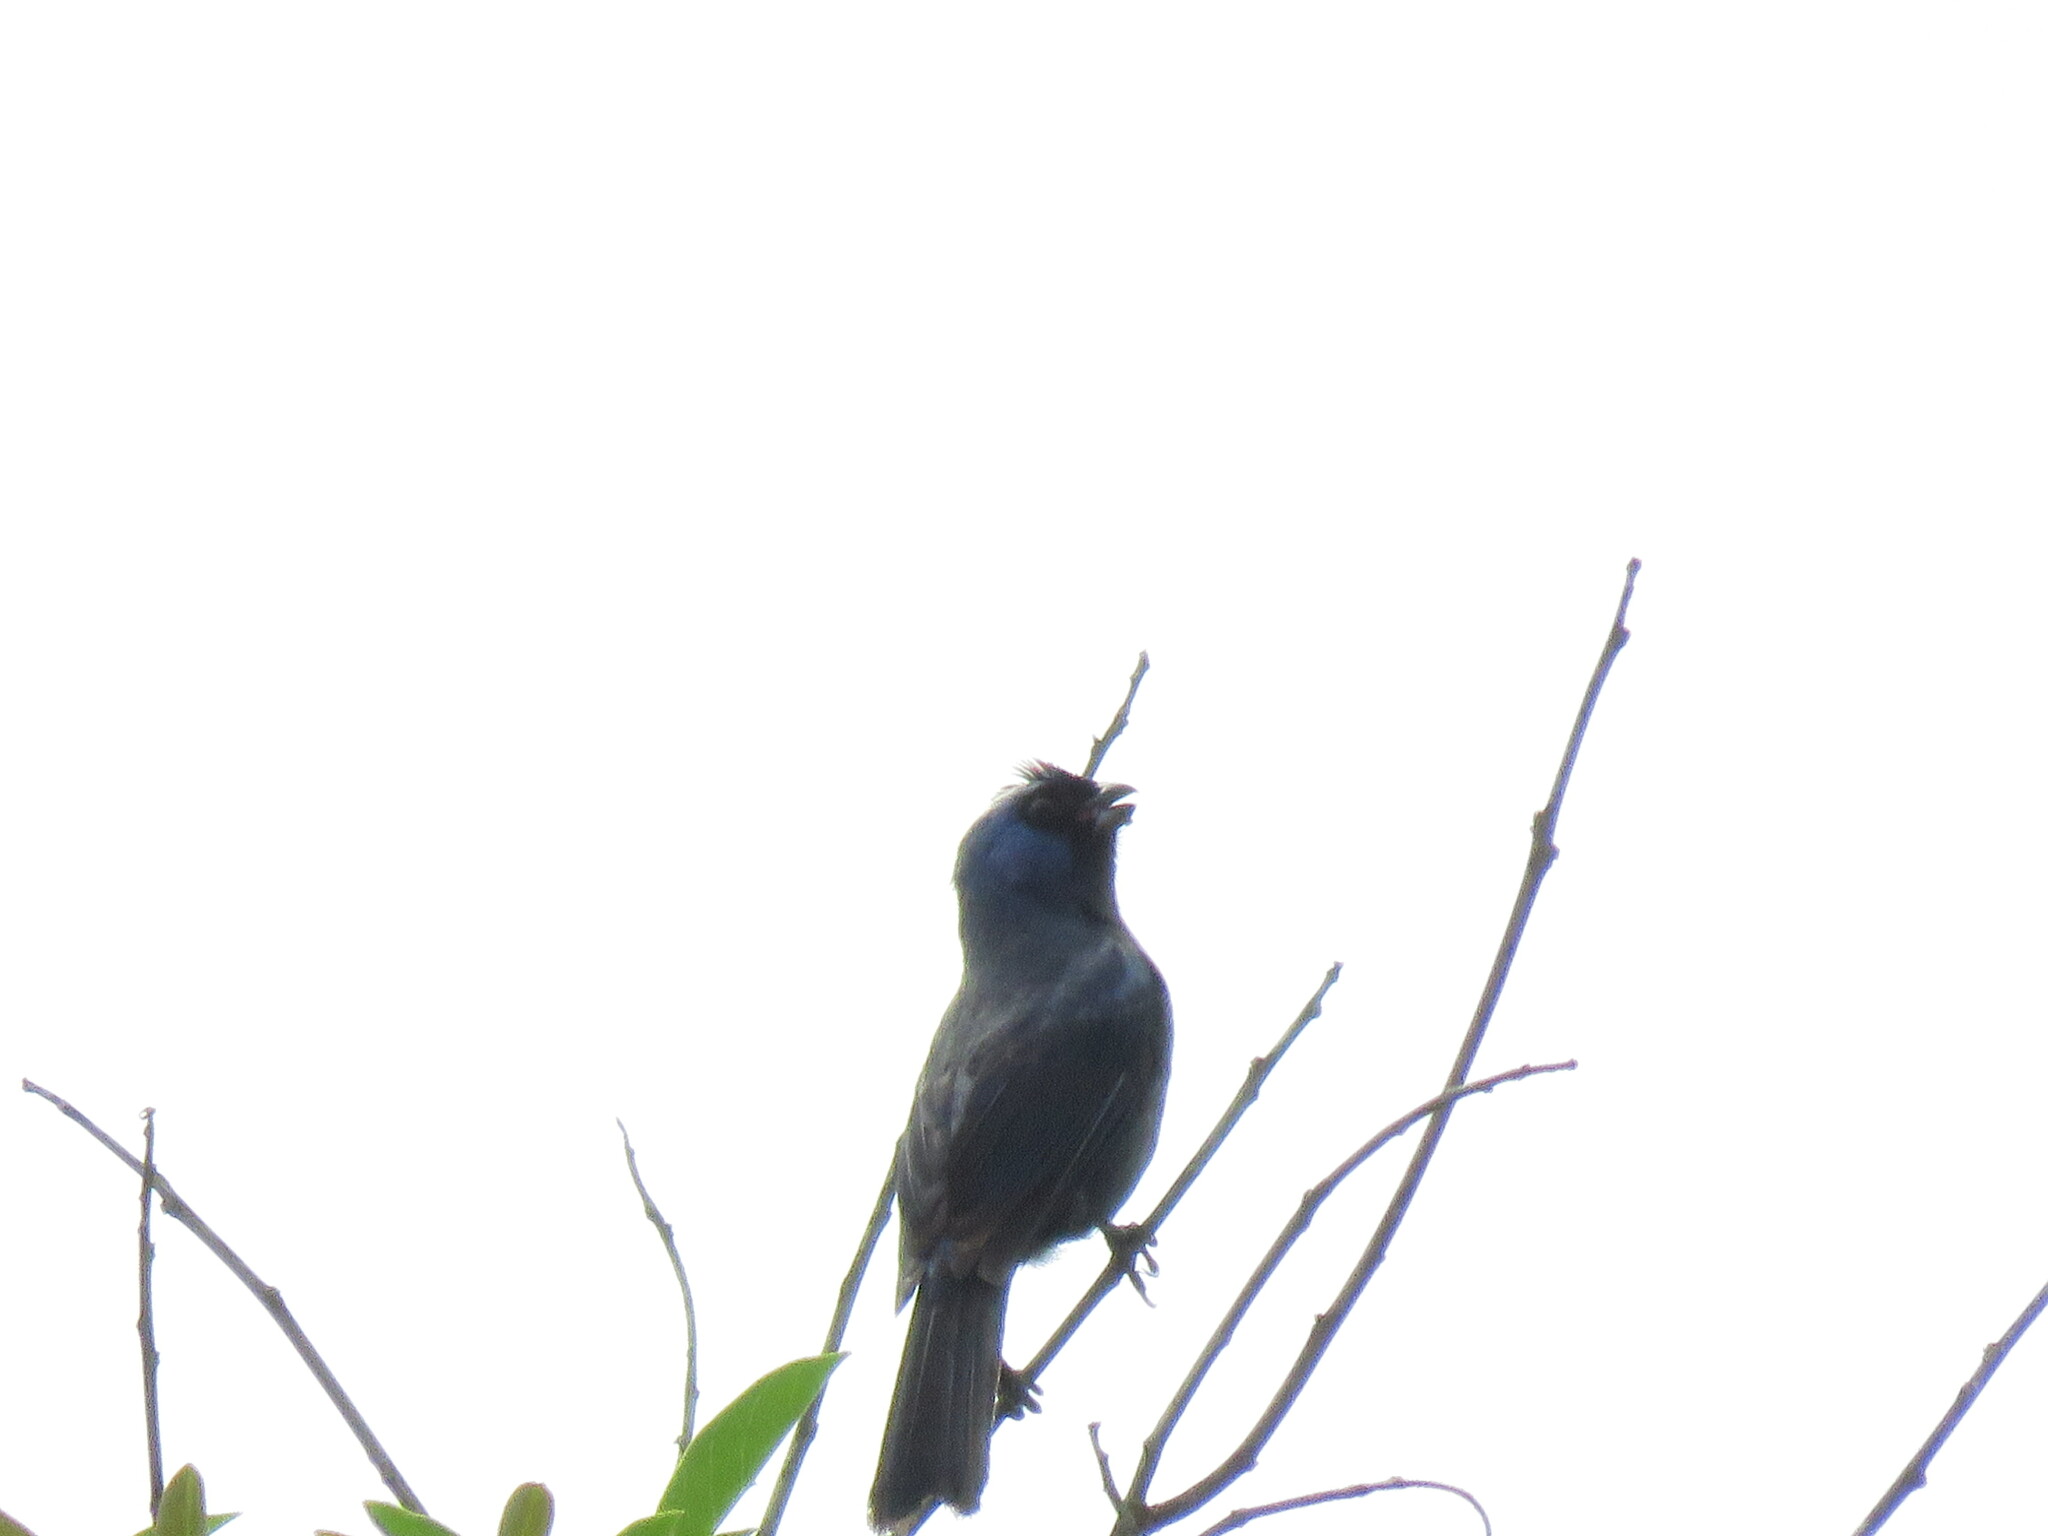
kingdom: Animalia
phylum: Chordata
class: Aves
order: Passeriformes
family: Thraupidae
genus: Stephanophorus
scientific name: Stephanophorus diadematus
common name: Diademed tanager
